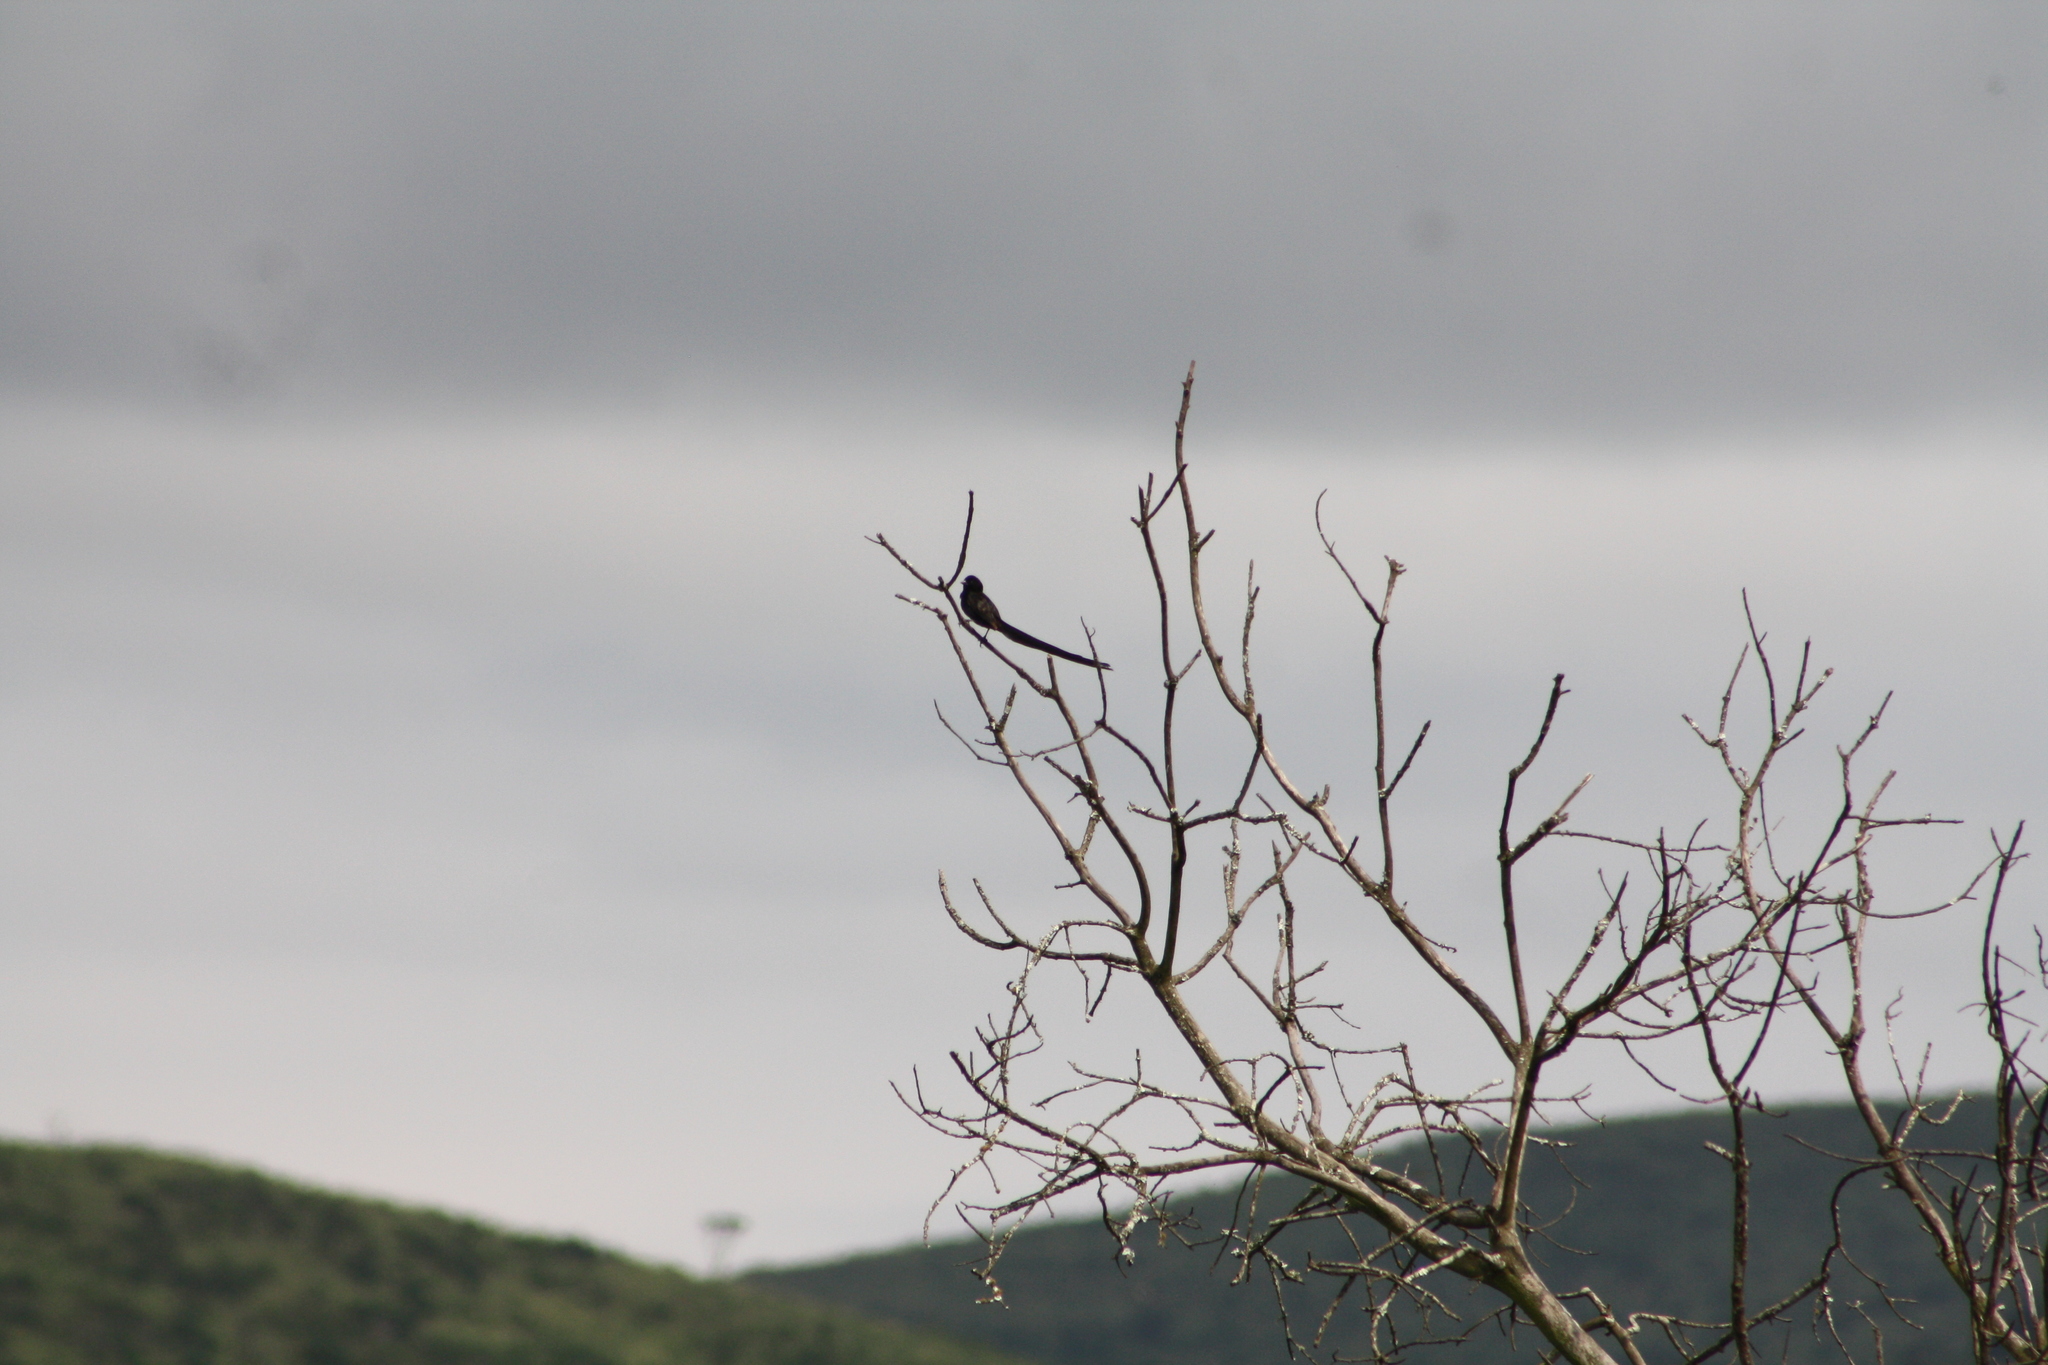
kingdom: Animalia
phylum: Chordata
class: Aves
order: Passeriformes
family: Ploceidae
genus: Euplectes
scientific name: Euplectes ardens
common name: Red-collared widowbird
